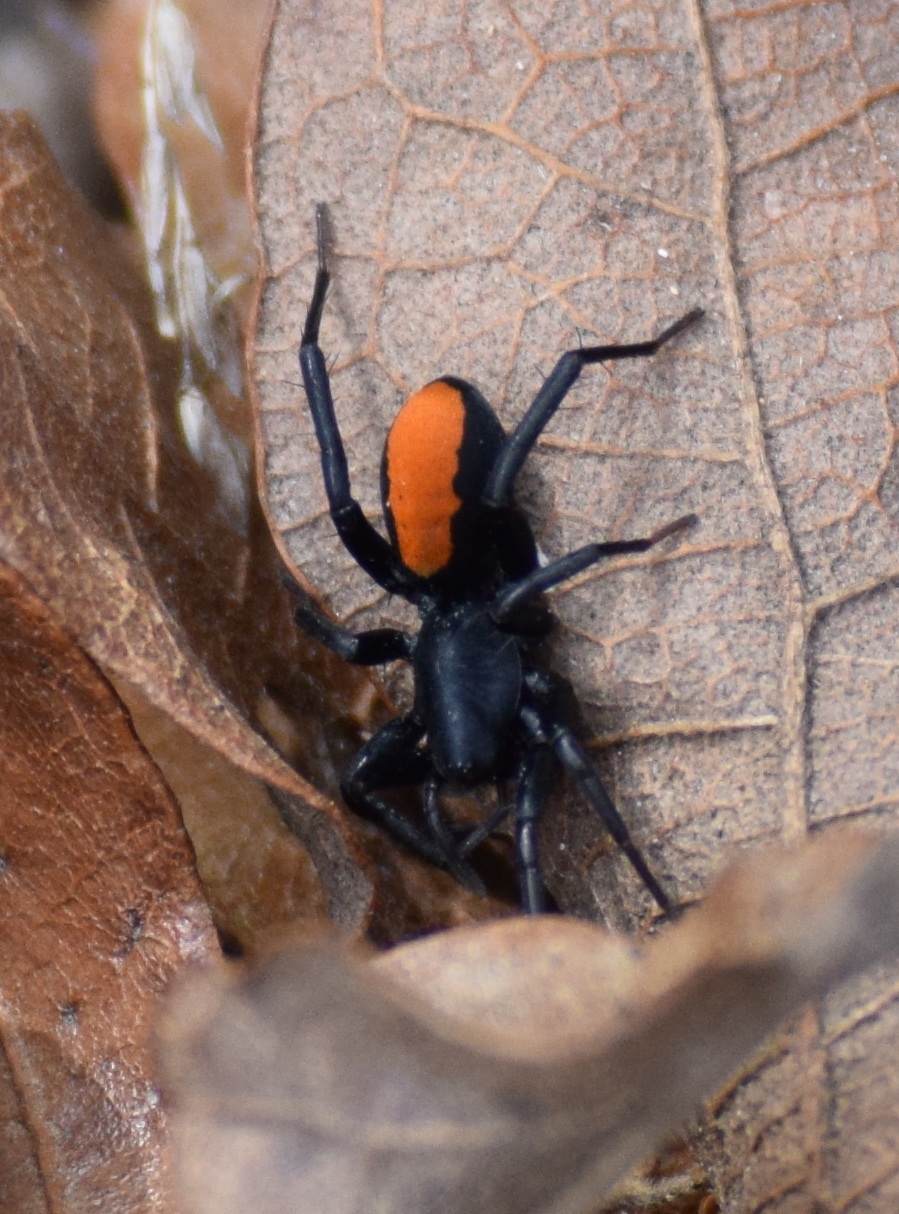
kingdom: Animalia
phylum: Arthropoda
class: Arachnida
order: Araneae
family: Corinnidae
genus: Castianeira
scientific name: Castianeira descripta
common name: Red-spotted ant-mimic sac spider
